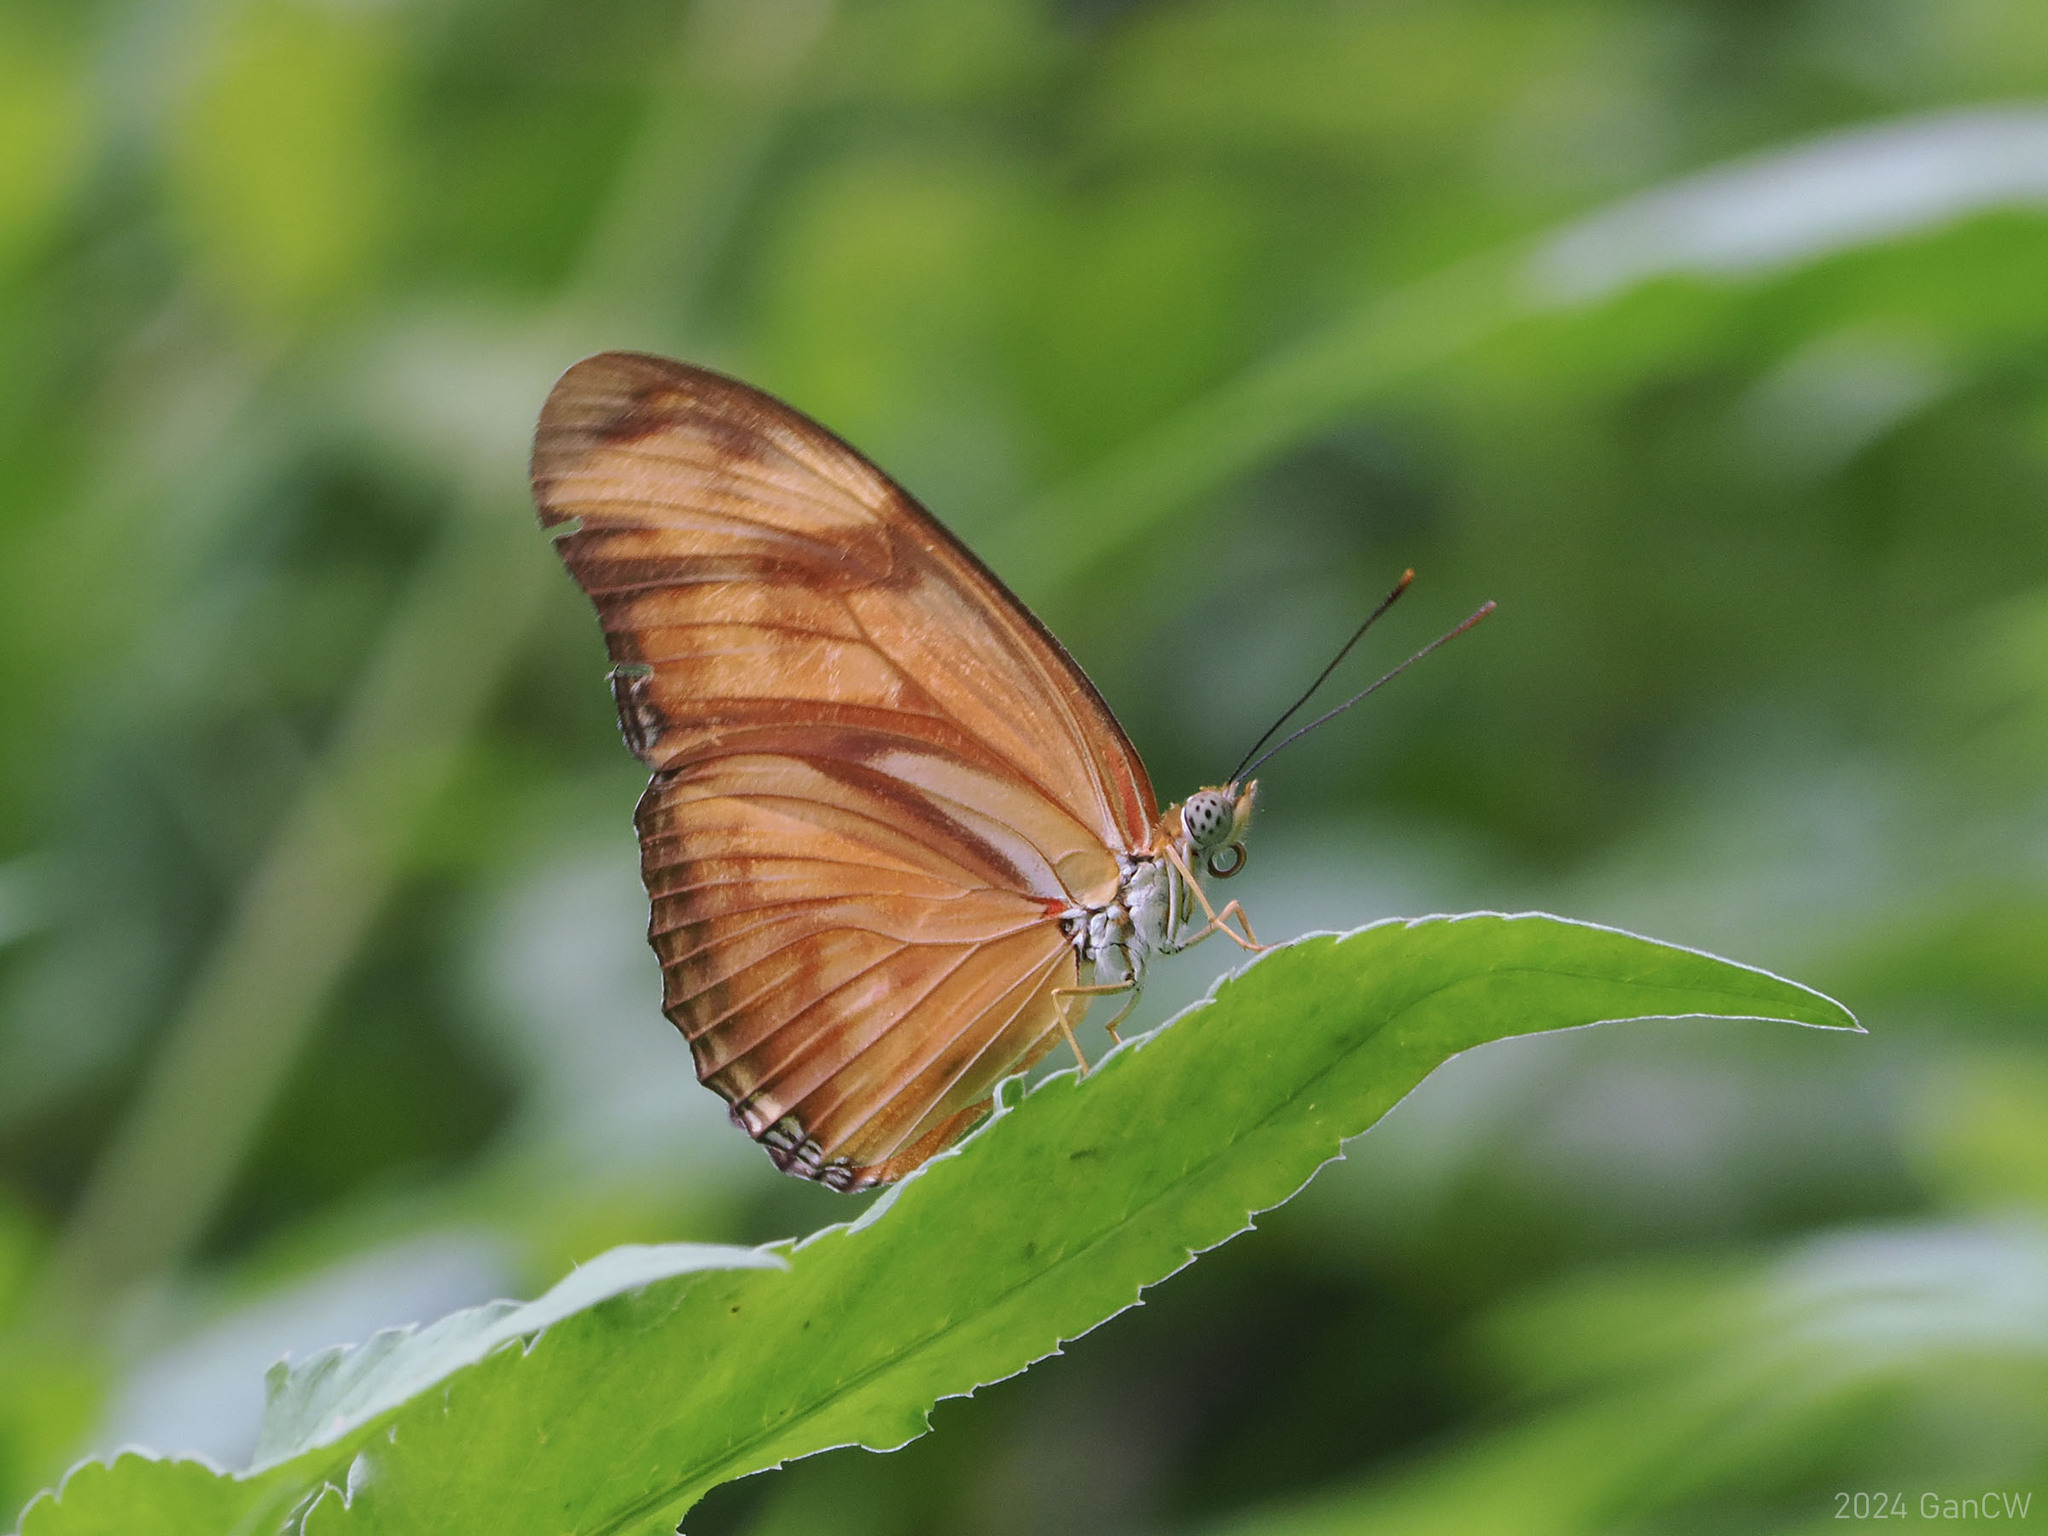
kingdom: Animalia
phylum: Arthropoda
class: Insecta
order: Lepidoptera
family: Nymphalidae
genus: Dryas
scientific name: Dryas iulia
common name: Flambeau
